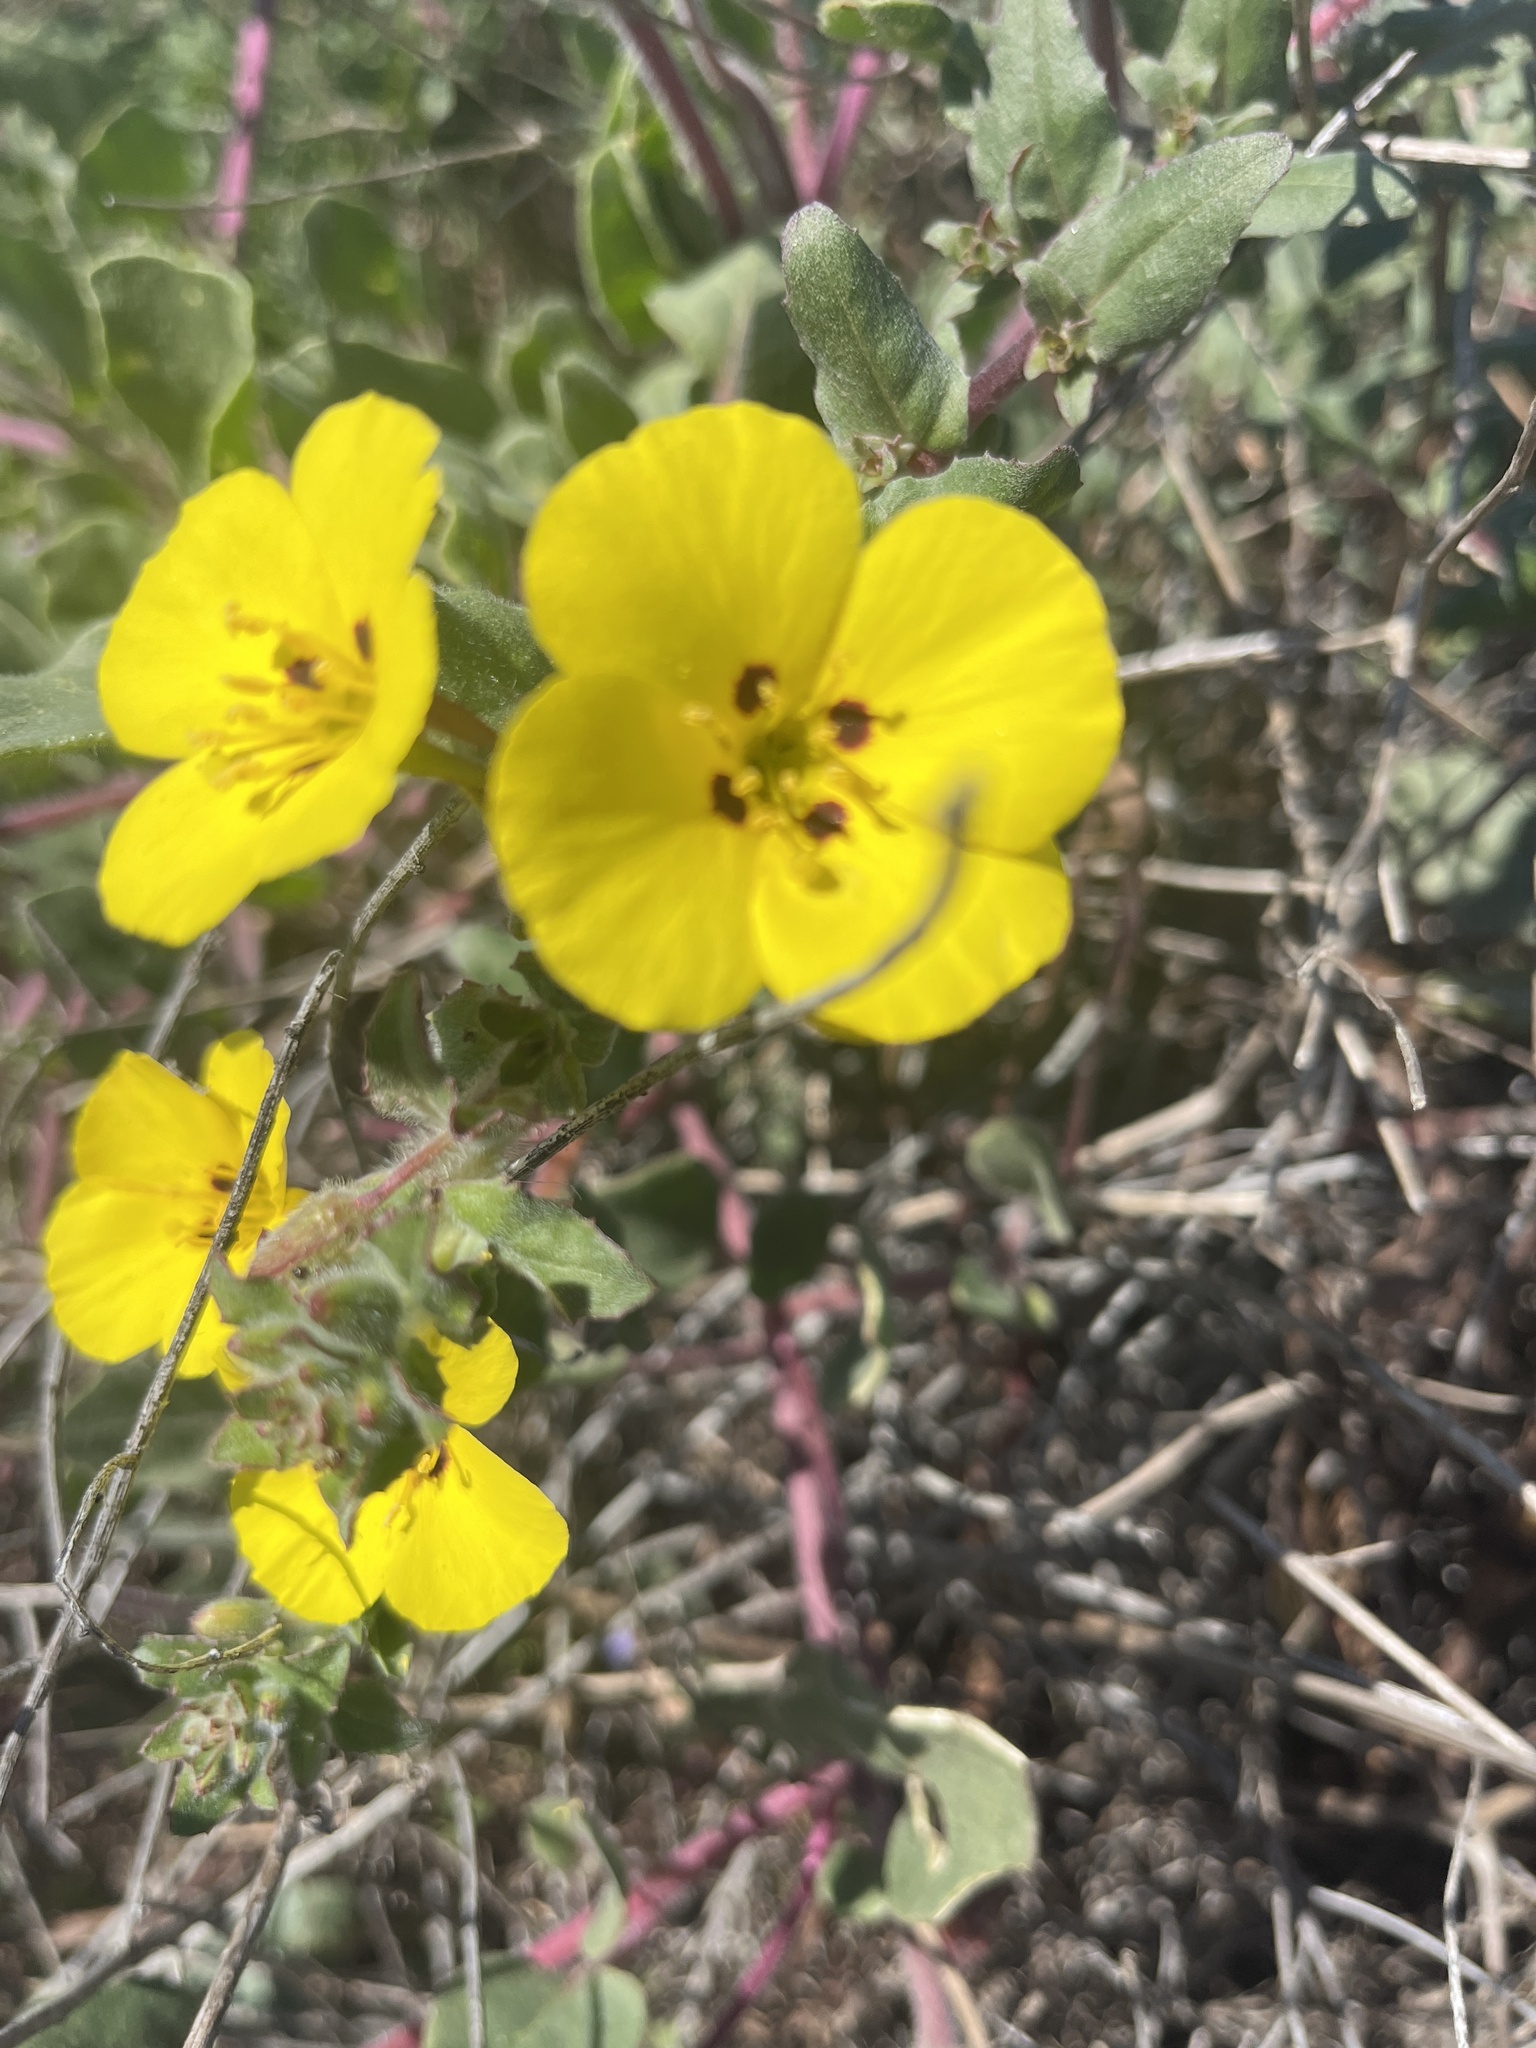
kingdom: Plantae
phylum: Tracheophyta
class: Magnoliopsida
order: Myrtales
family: Onagraceae
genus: Camissoniopsis
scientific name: Camissoniopsis cheiranthifolia
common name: Beach suncup
